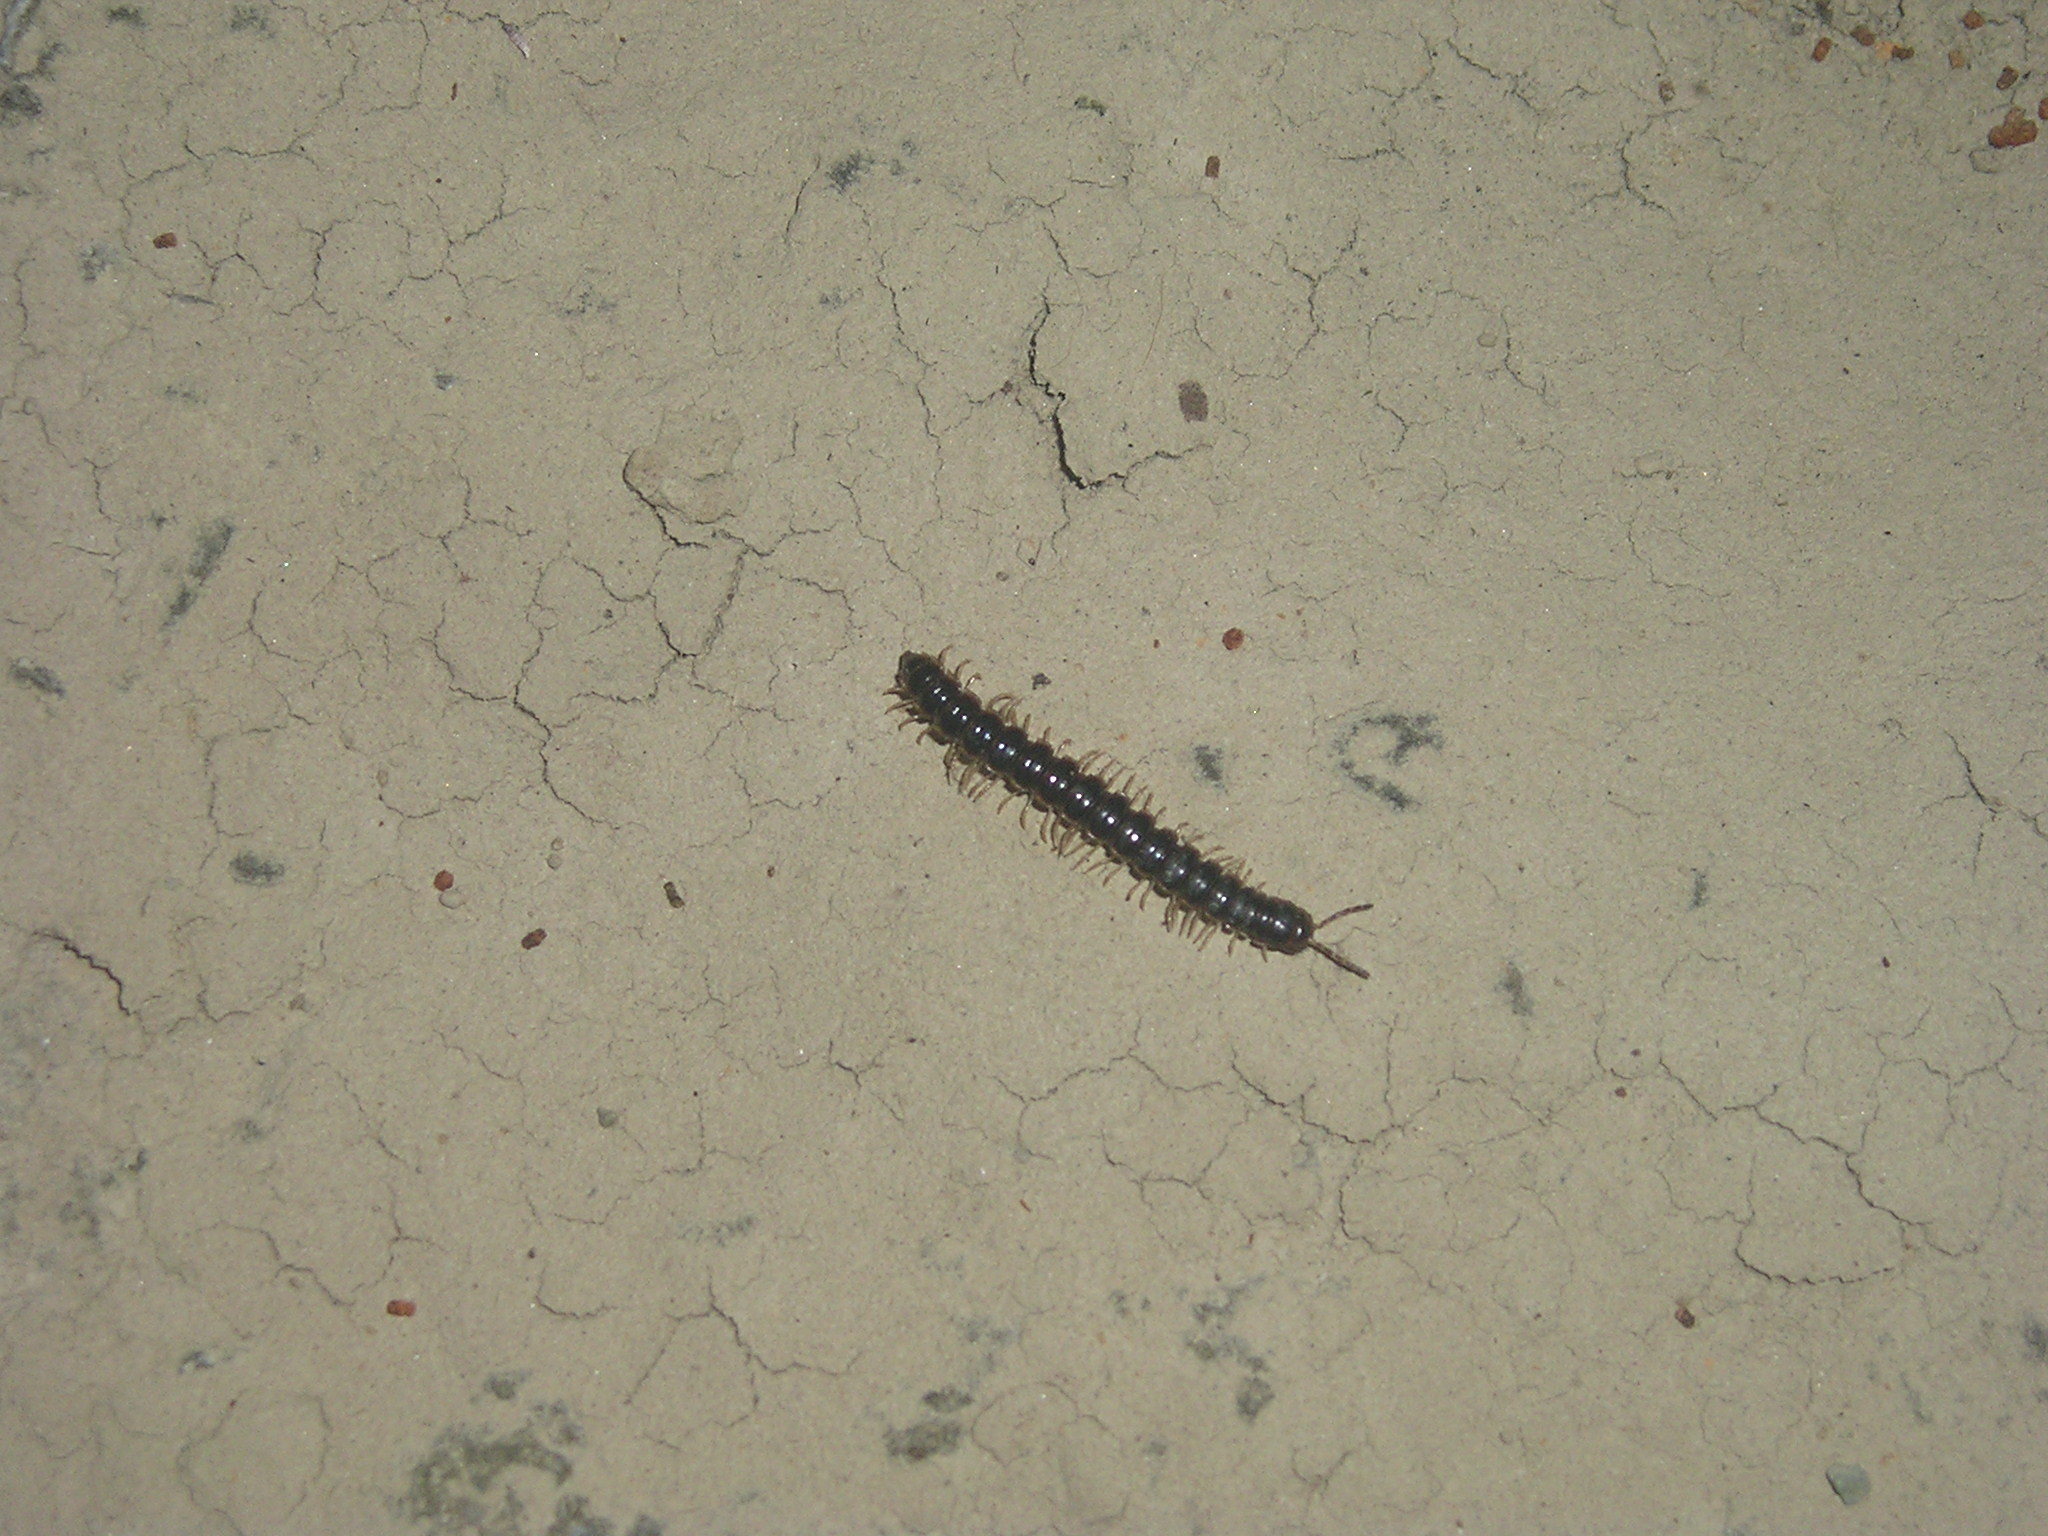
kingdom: Animalia
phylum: Arthropoda
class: Diplopoda
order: Polydesmida
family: Paradoxosomatidae
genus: Oxidus
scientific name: Oxidus gracilis
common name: Greenhouse millipede
